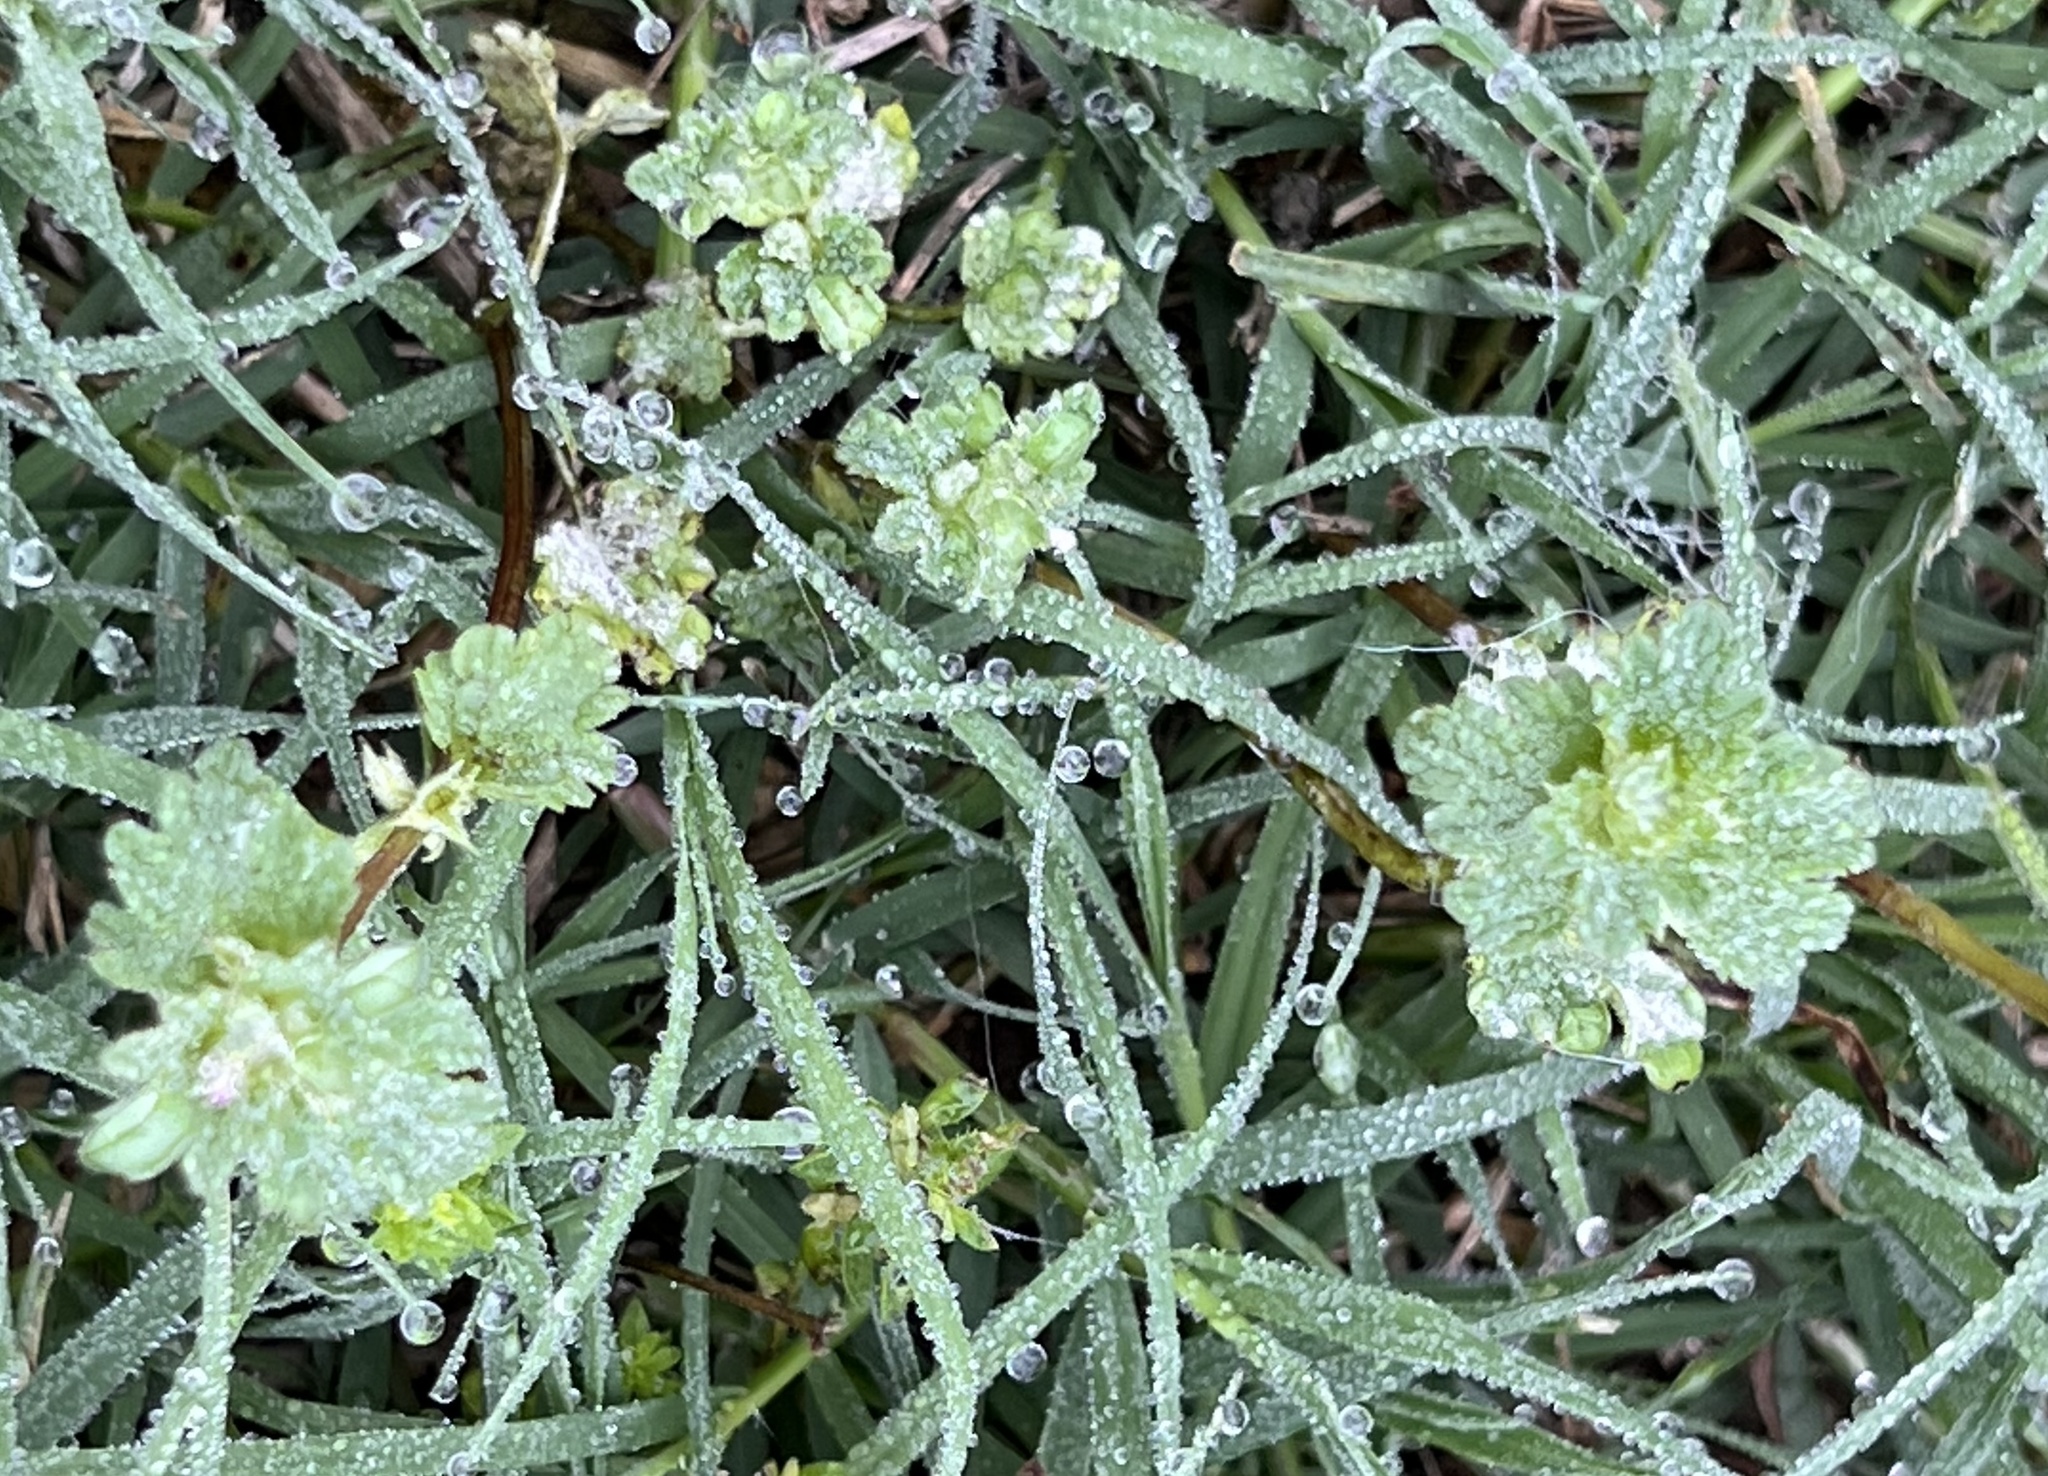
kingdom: Plantae
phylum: Tracheophyta
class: Magnoliopsida
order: Lamiales
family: Lamiaceae
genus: Lamium
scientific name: Lamium amplexicaule
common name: Henbit dead-nettle
